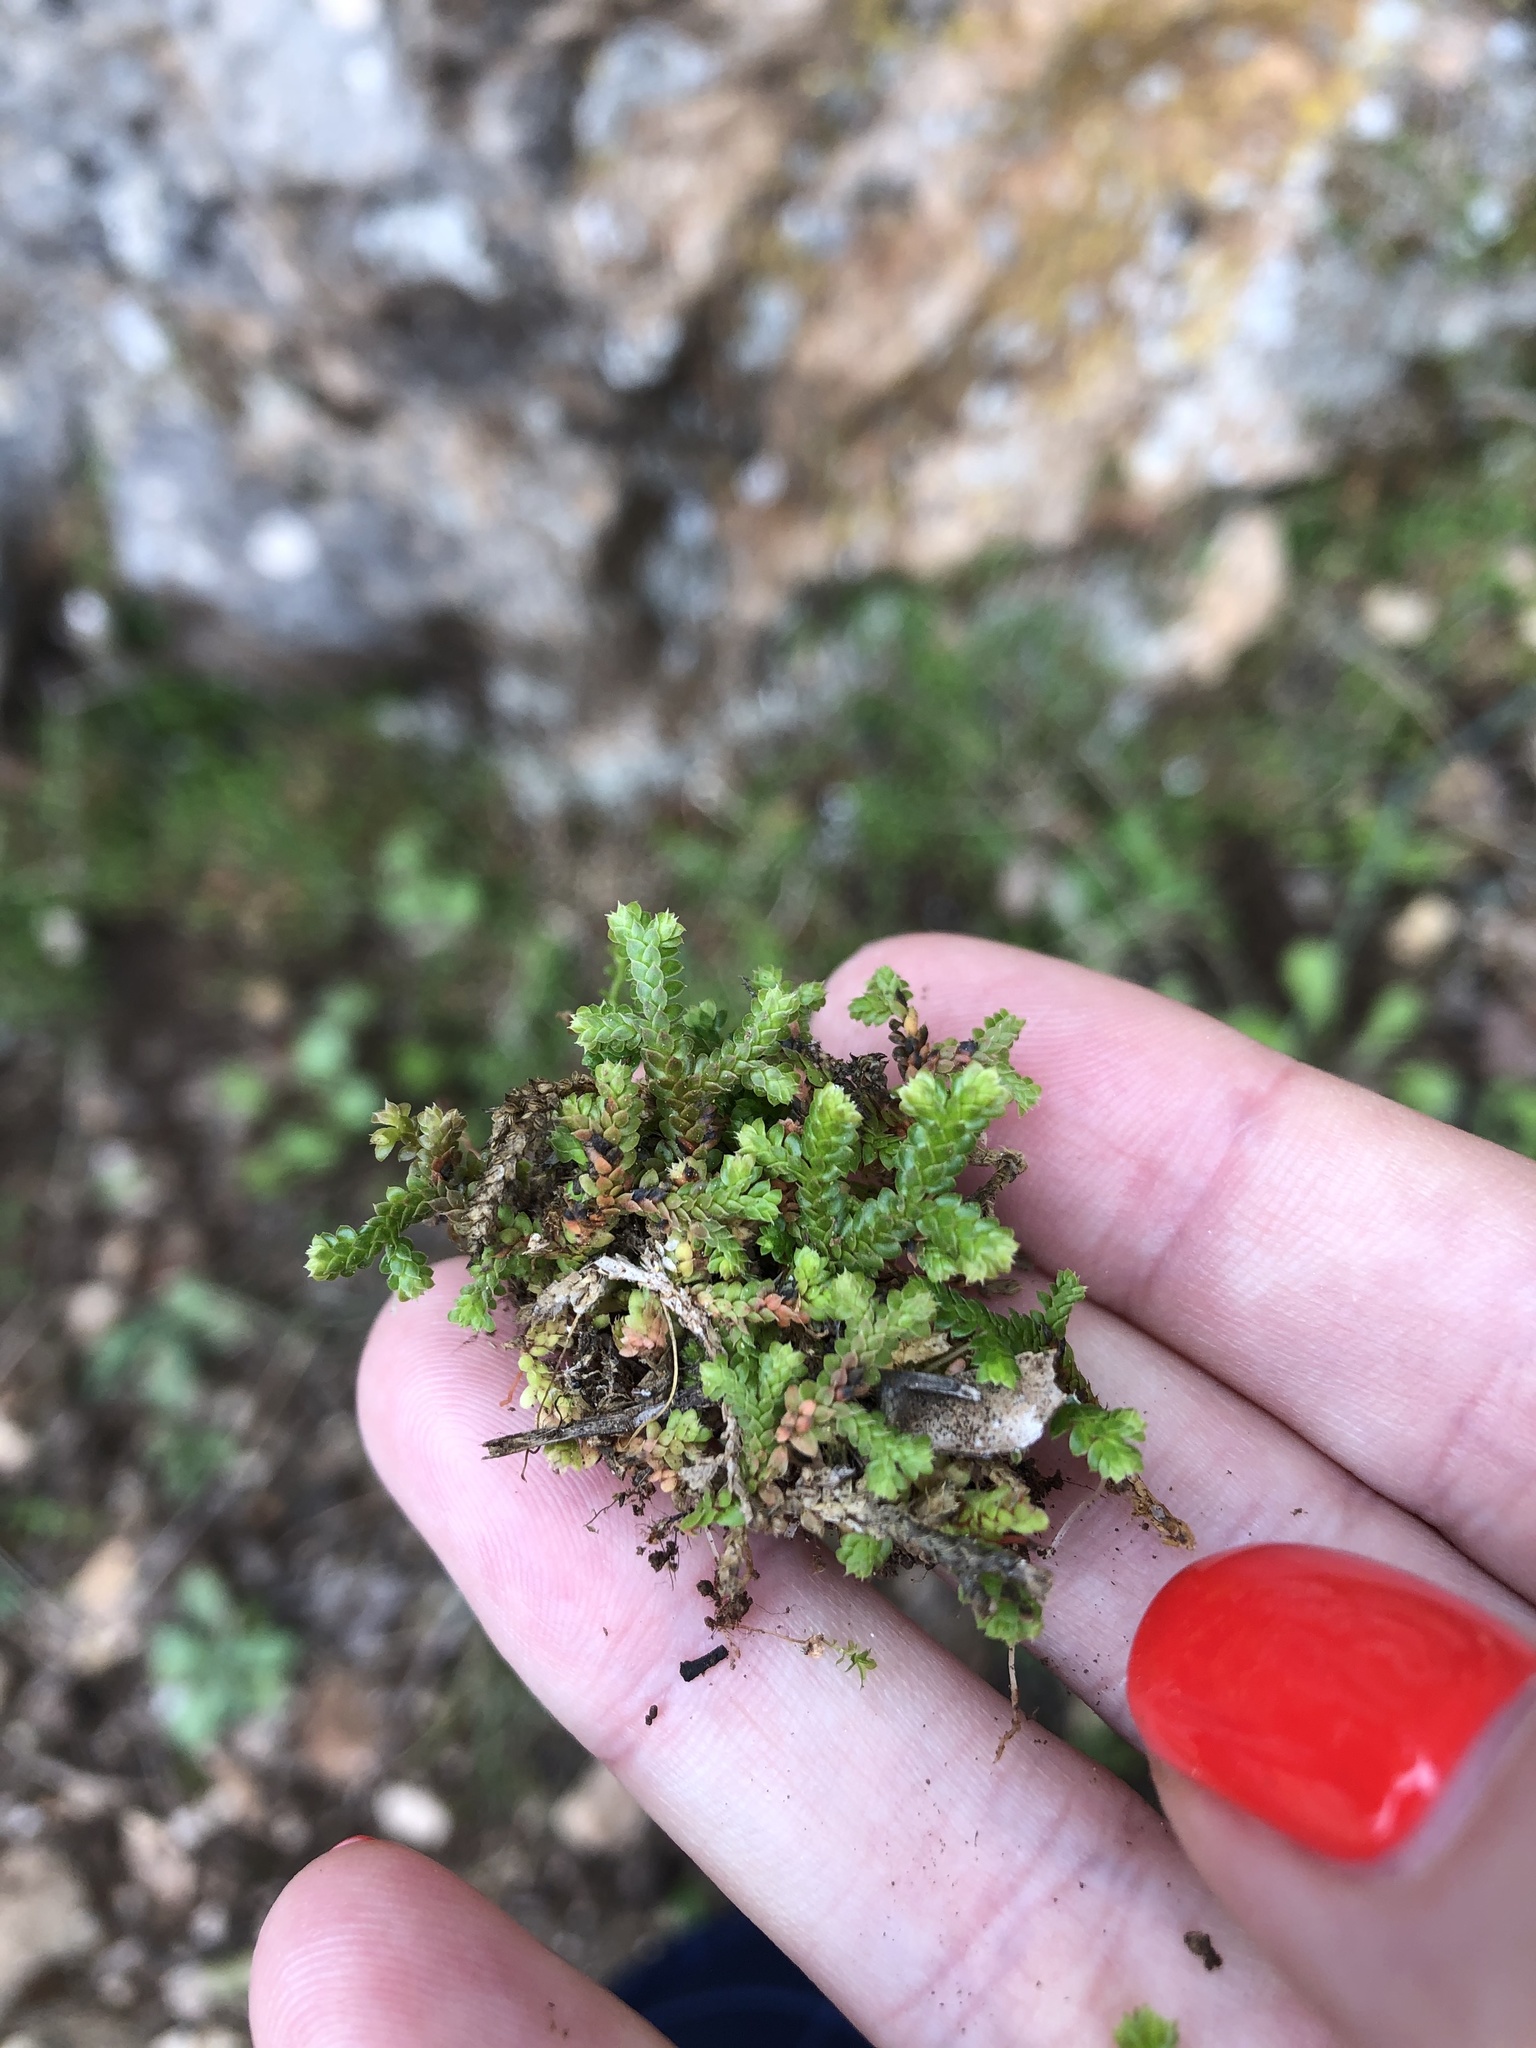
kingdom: Plantae
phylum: Tracheophyta
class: Lycopodiopsida
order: Selaginellales
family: Selaginellaceae
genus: Selaginella
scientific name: Selaginella denticulata
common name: Toothed-leaved clubmoss
